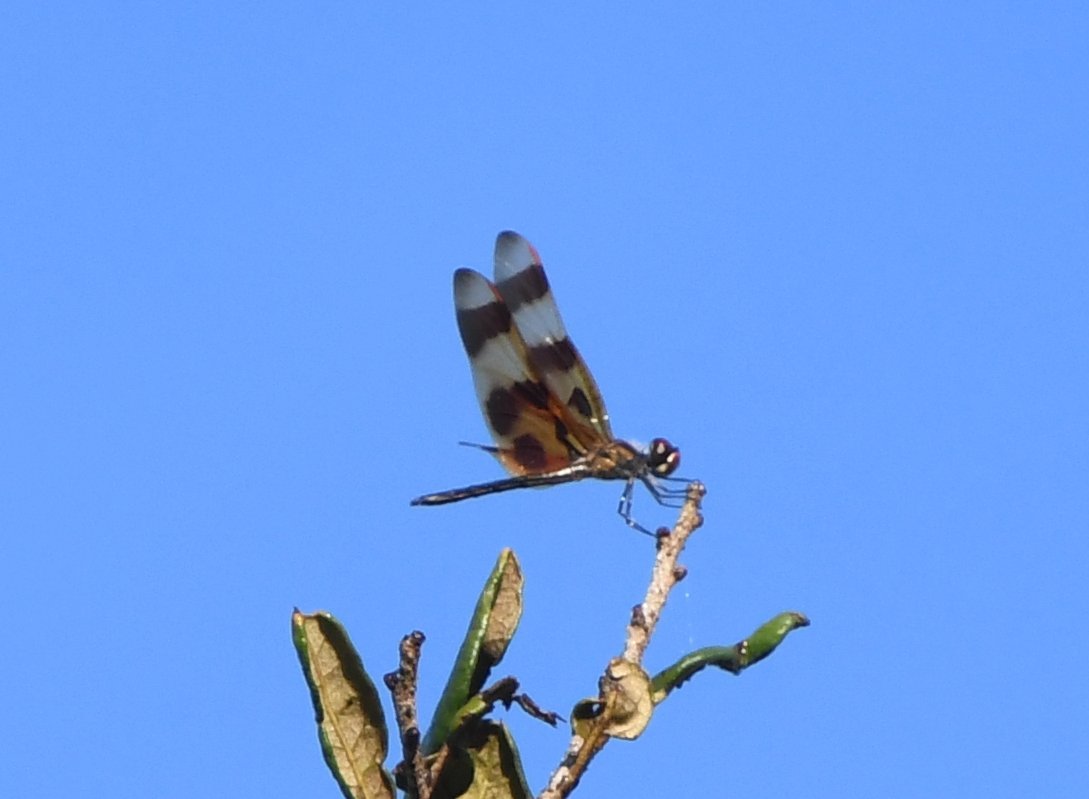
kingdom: Animalia
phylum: Arthropoda
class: Insecta
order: Odonata
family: Libellulidae
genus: Celithemis
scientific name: Celithemis eponina
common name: Halloween pennant
